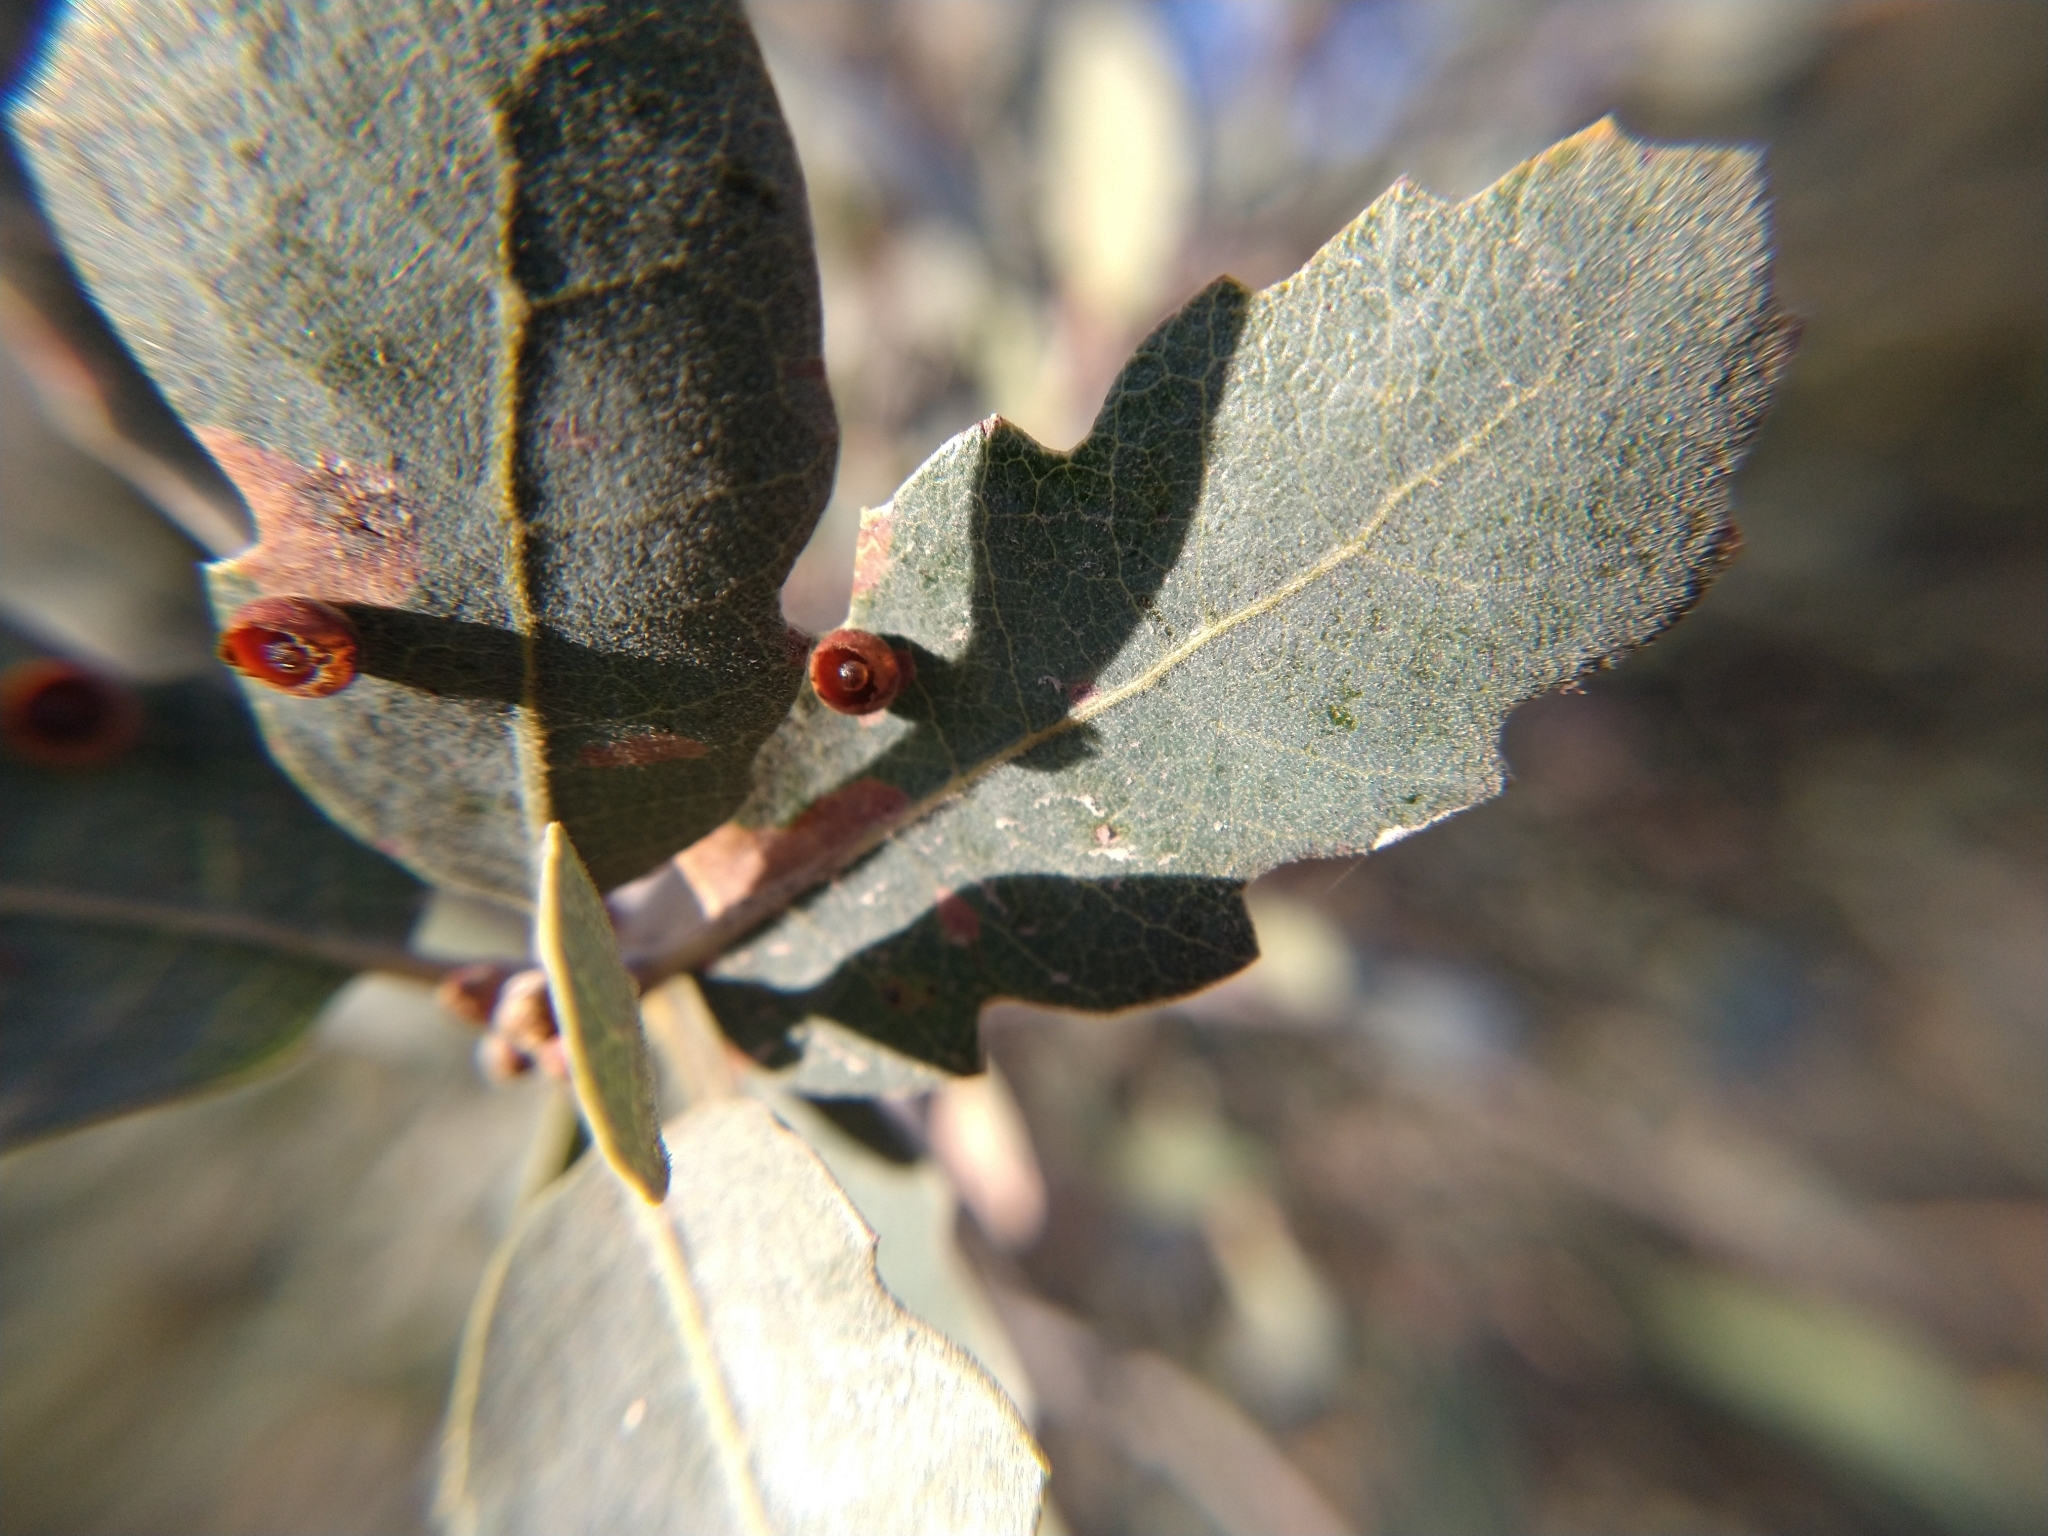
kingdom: Animalia
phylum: Arthropoda
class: Insecta
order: Hymenoptera
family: Cynipidae
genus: Andricus
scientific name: Andricus
